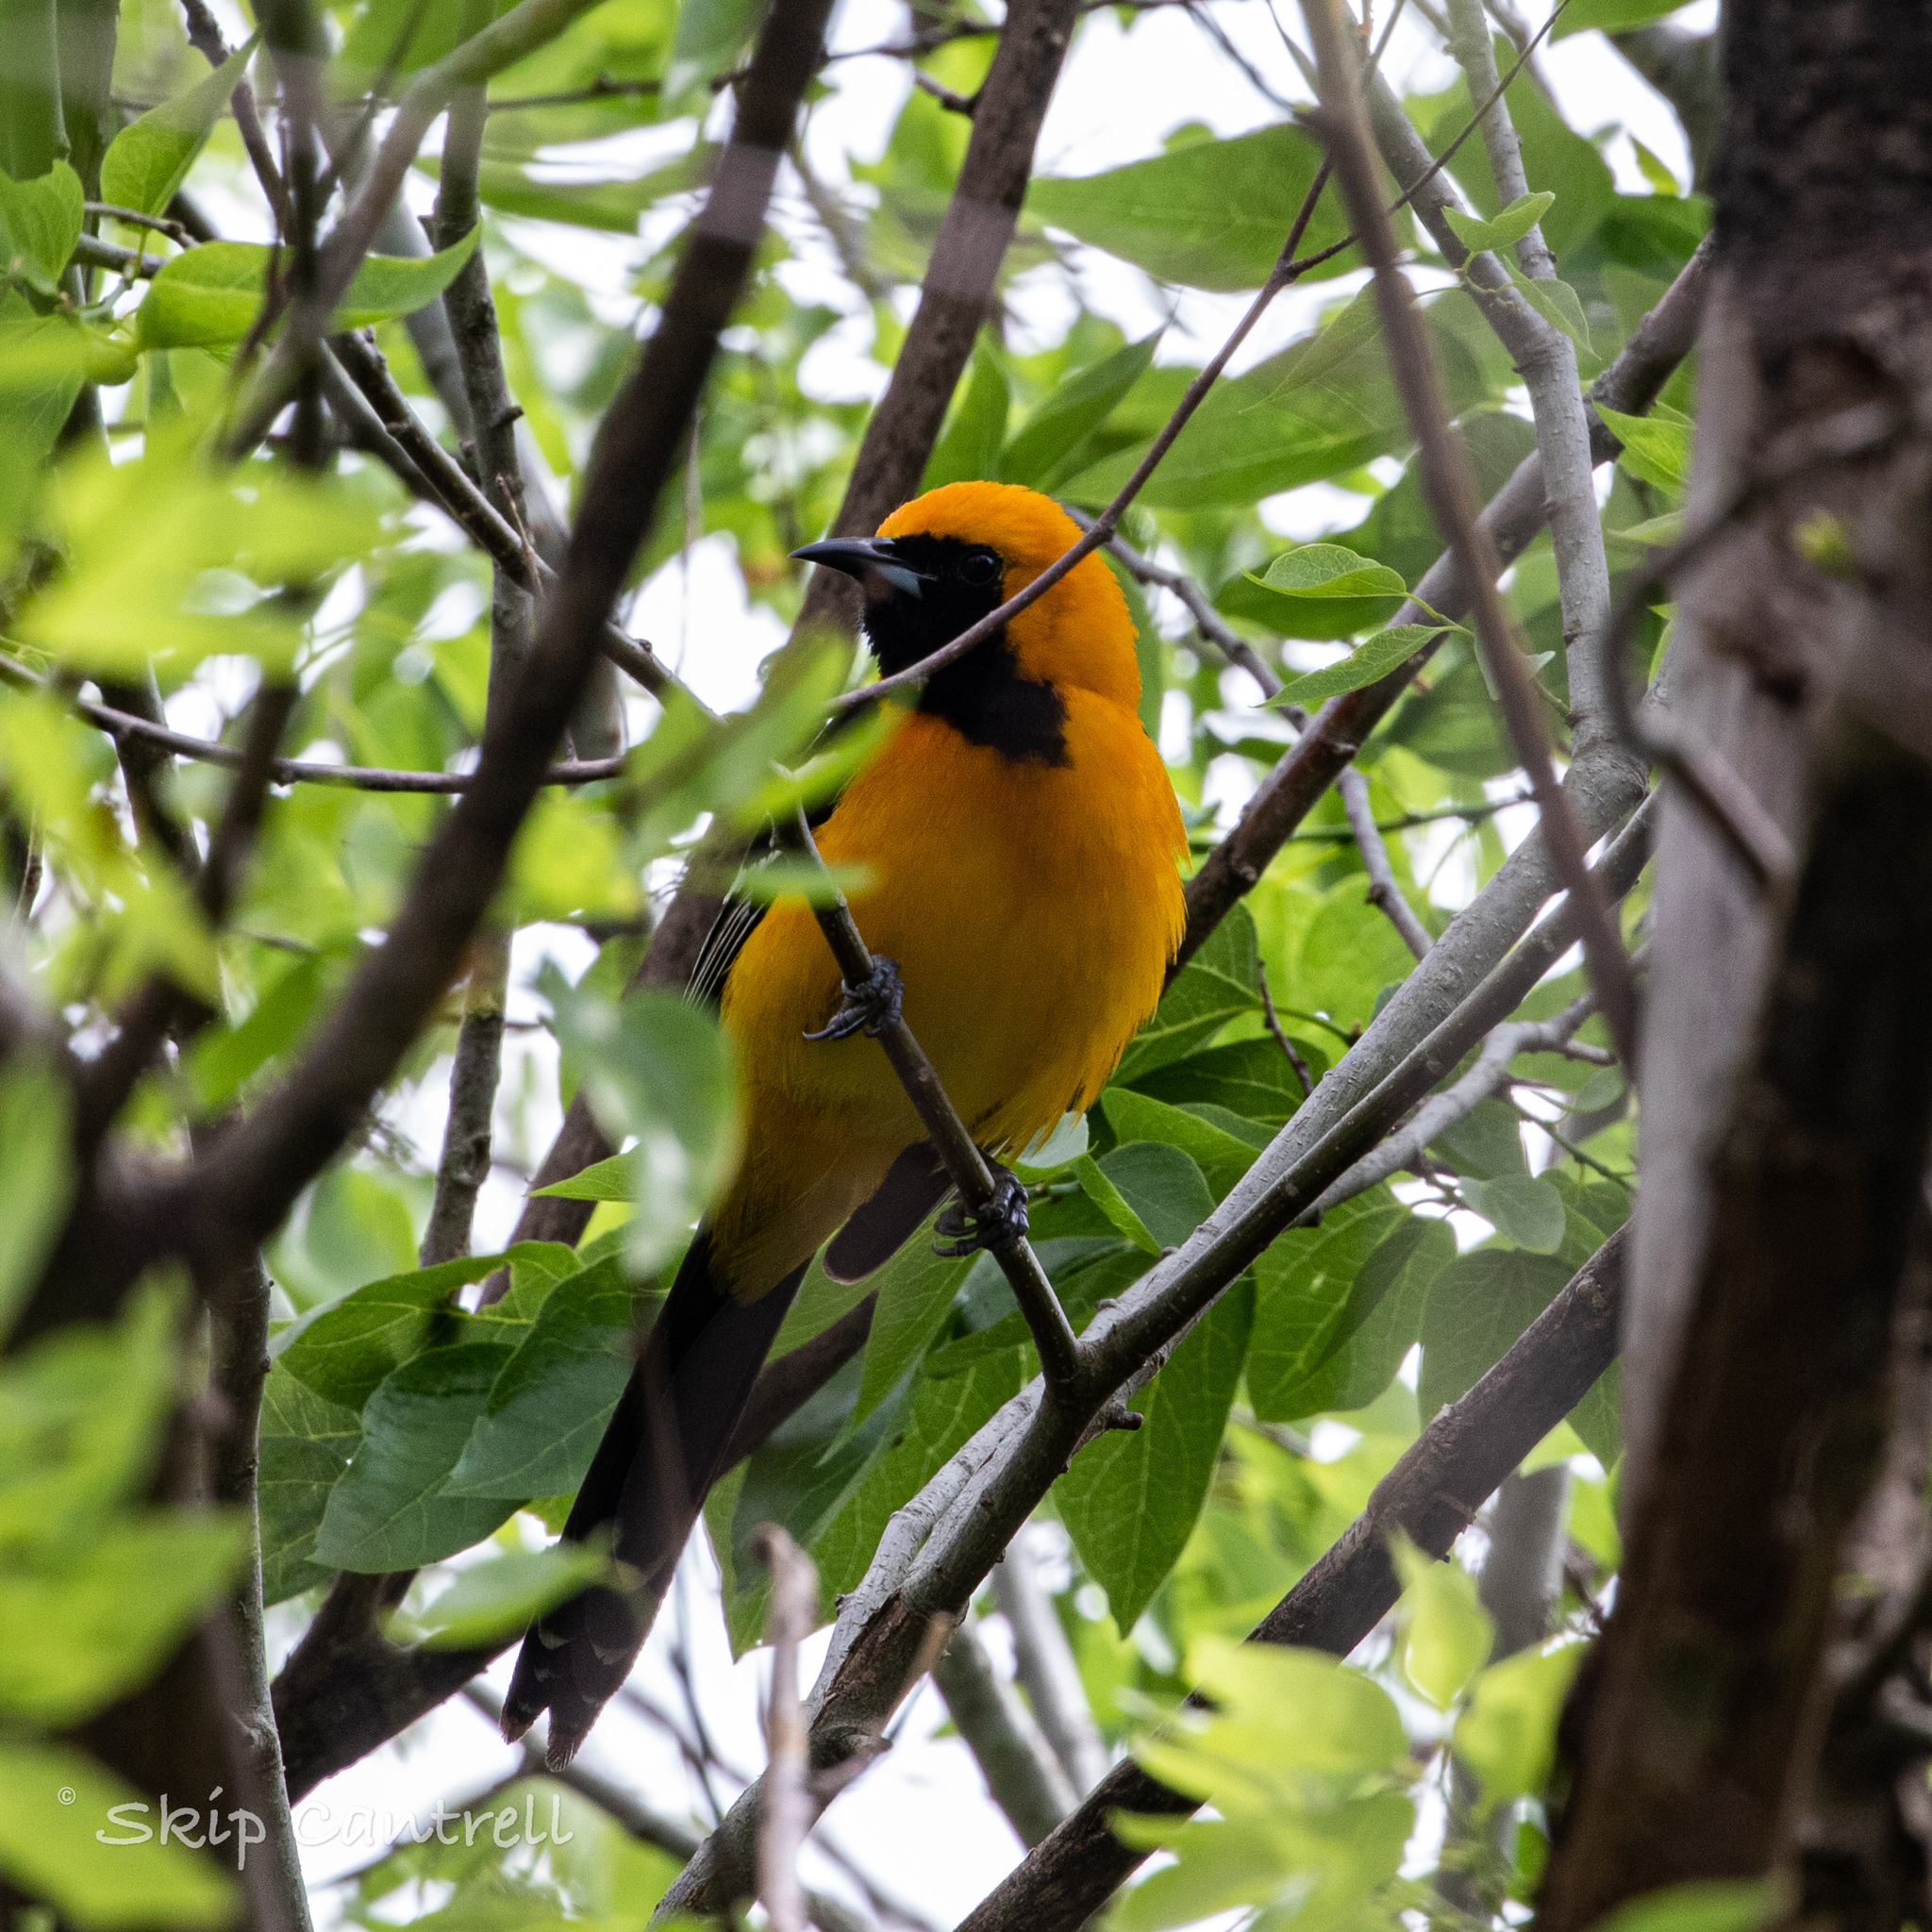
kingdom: Animalia
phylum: Chordata
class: Aves
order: Passeriformes
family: Icteridae
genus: Icterus
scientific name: Icterus cucullatus
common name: Hooded oriole
